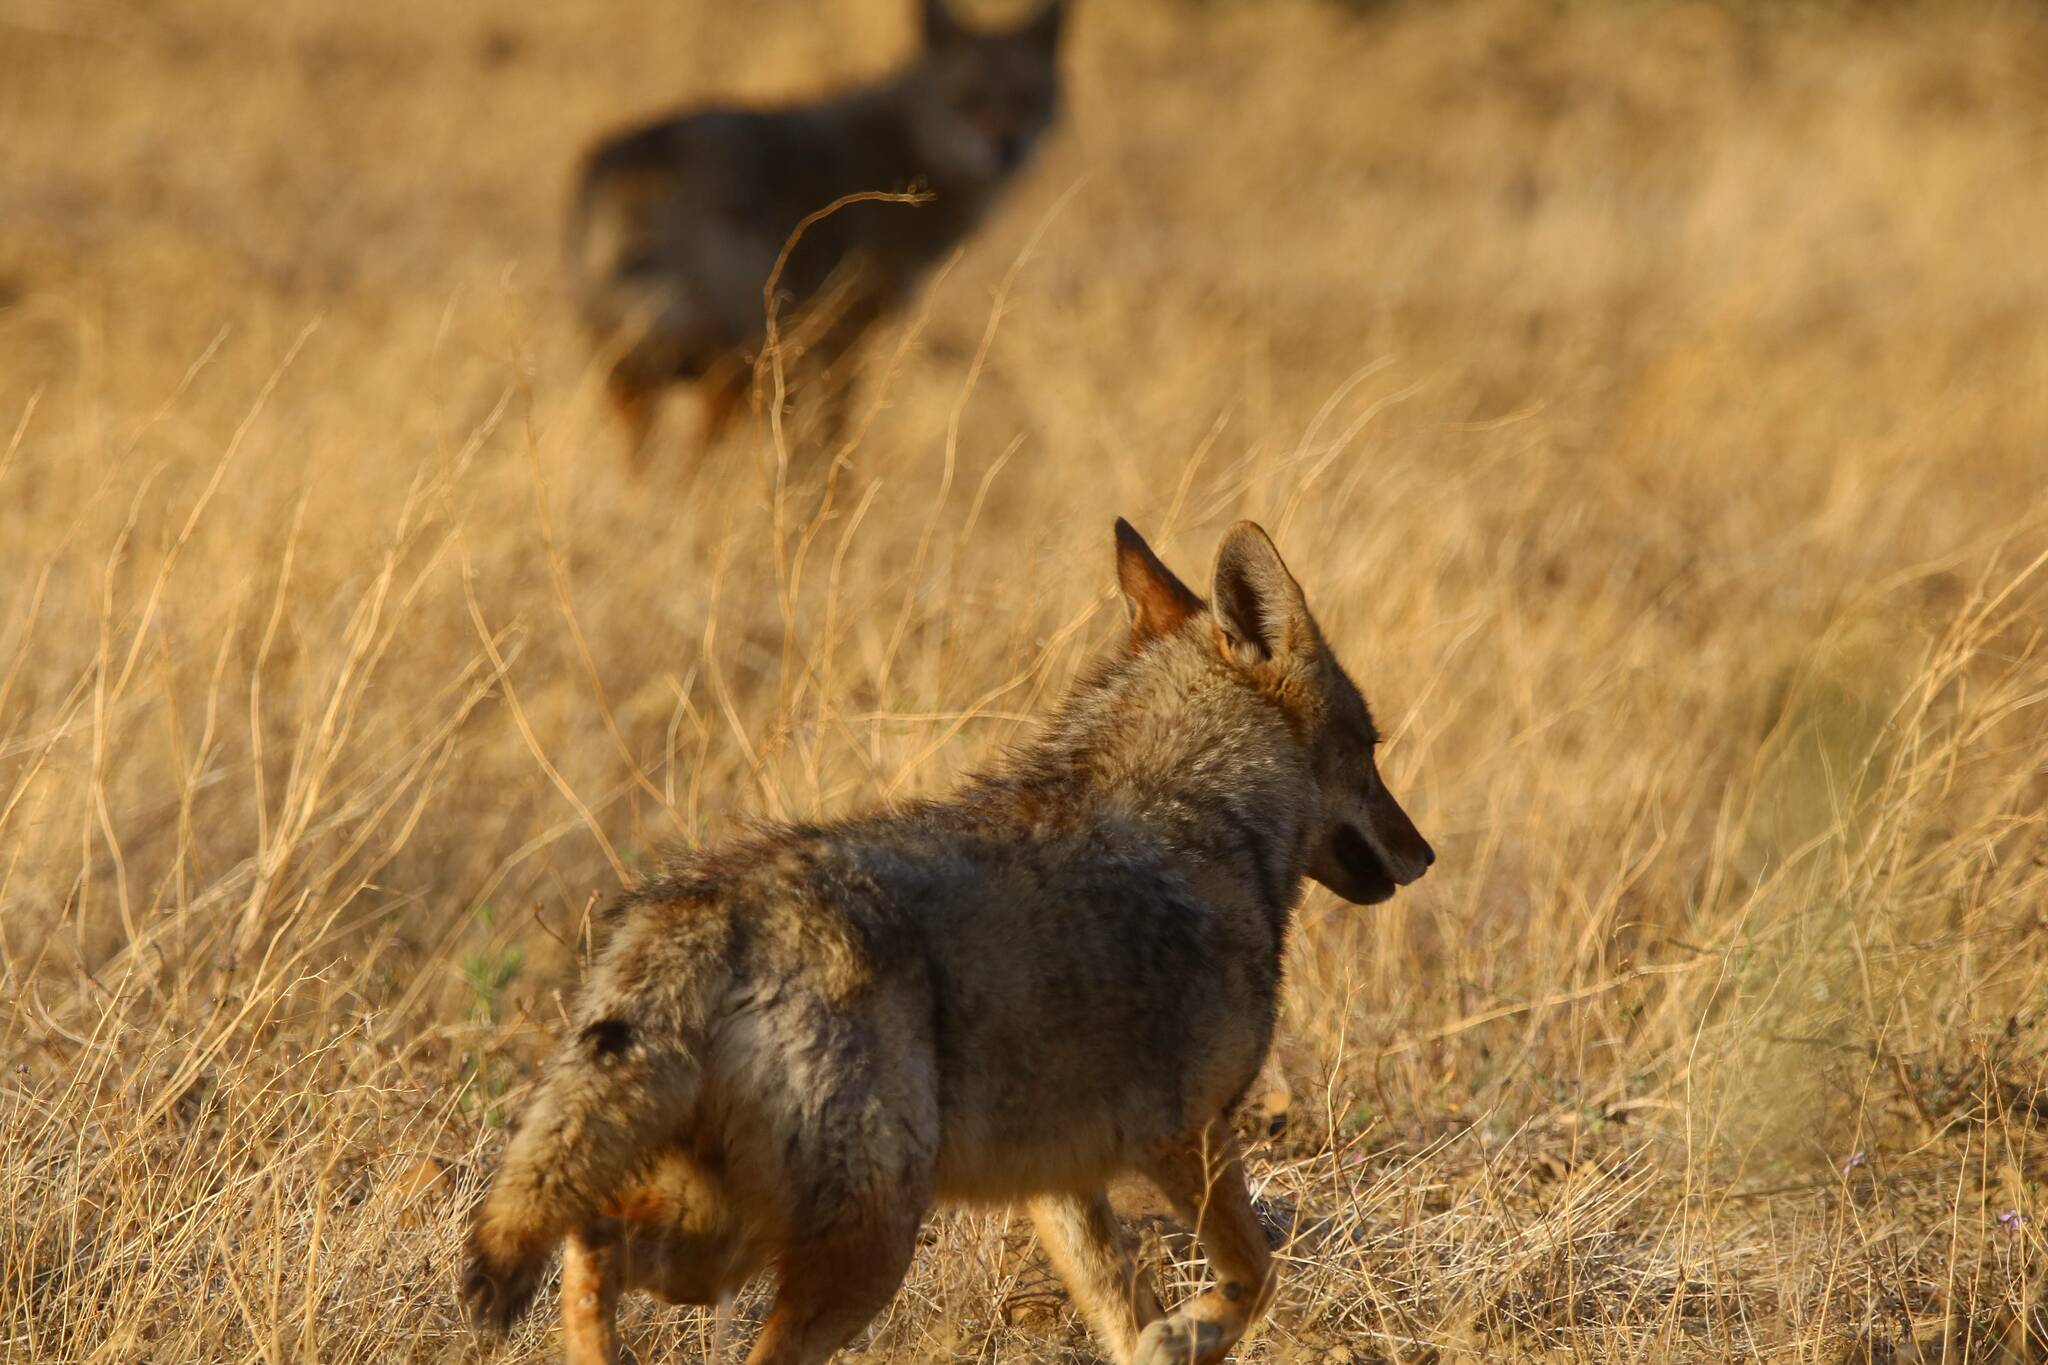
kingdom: Animalia
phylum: Chordata
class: Mammalia
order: Carnivora
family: Canidae
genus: Canis
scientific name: Canis lupaster
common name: African golden wolf
